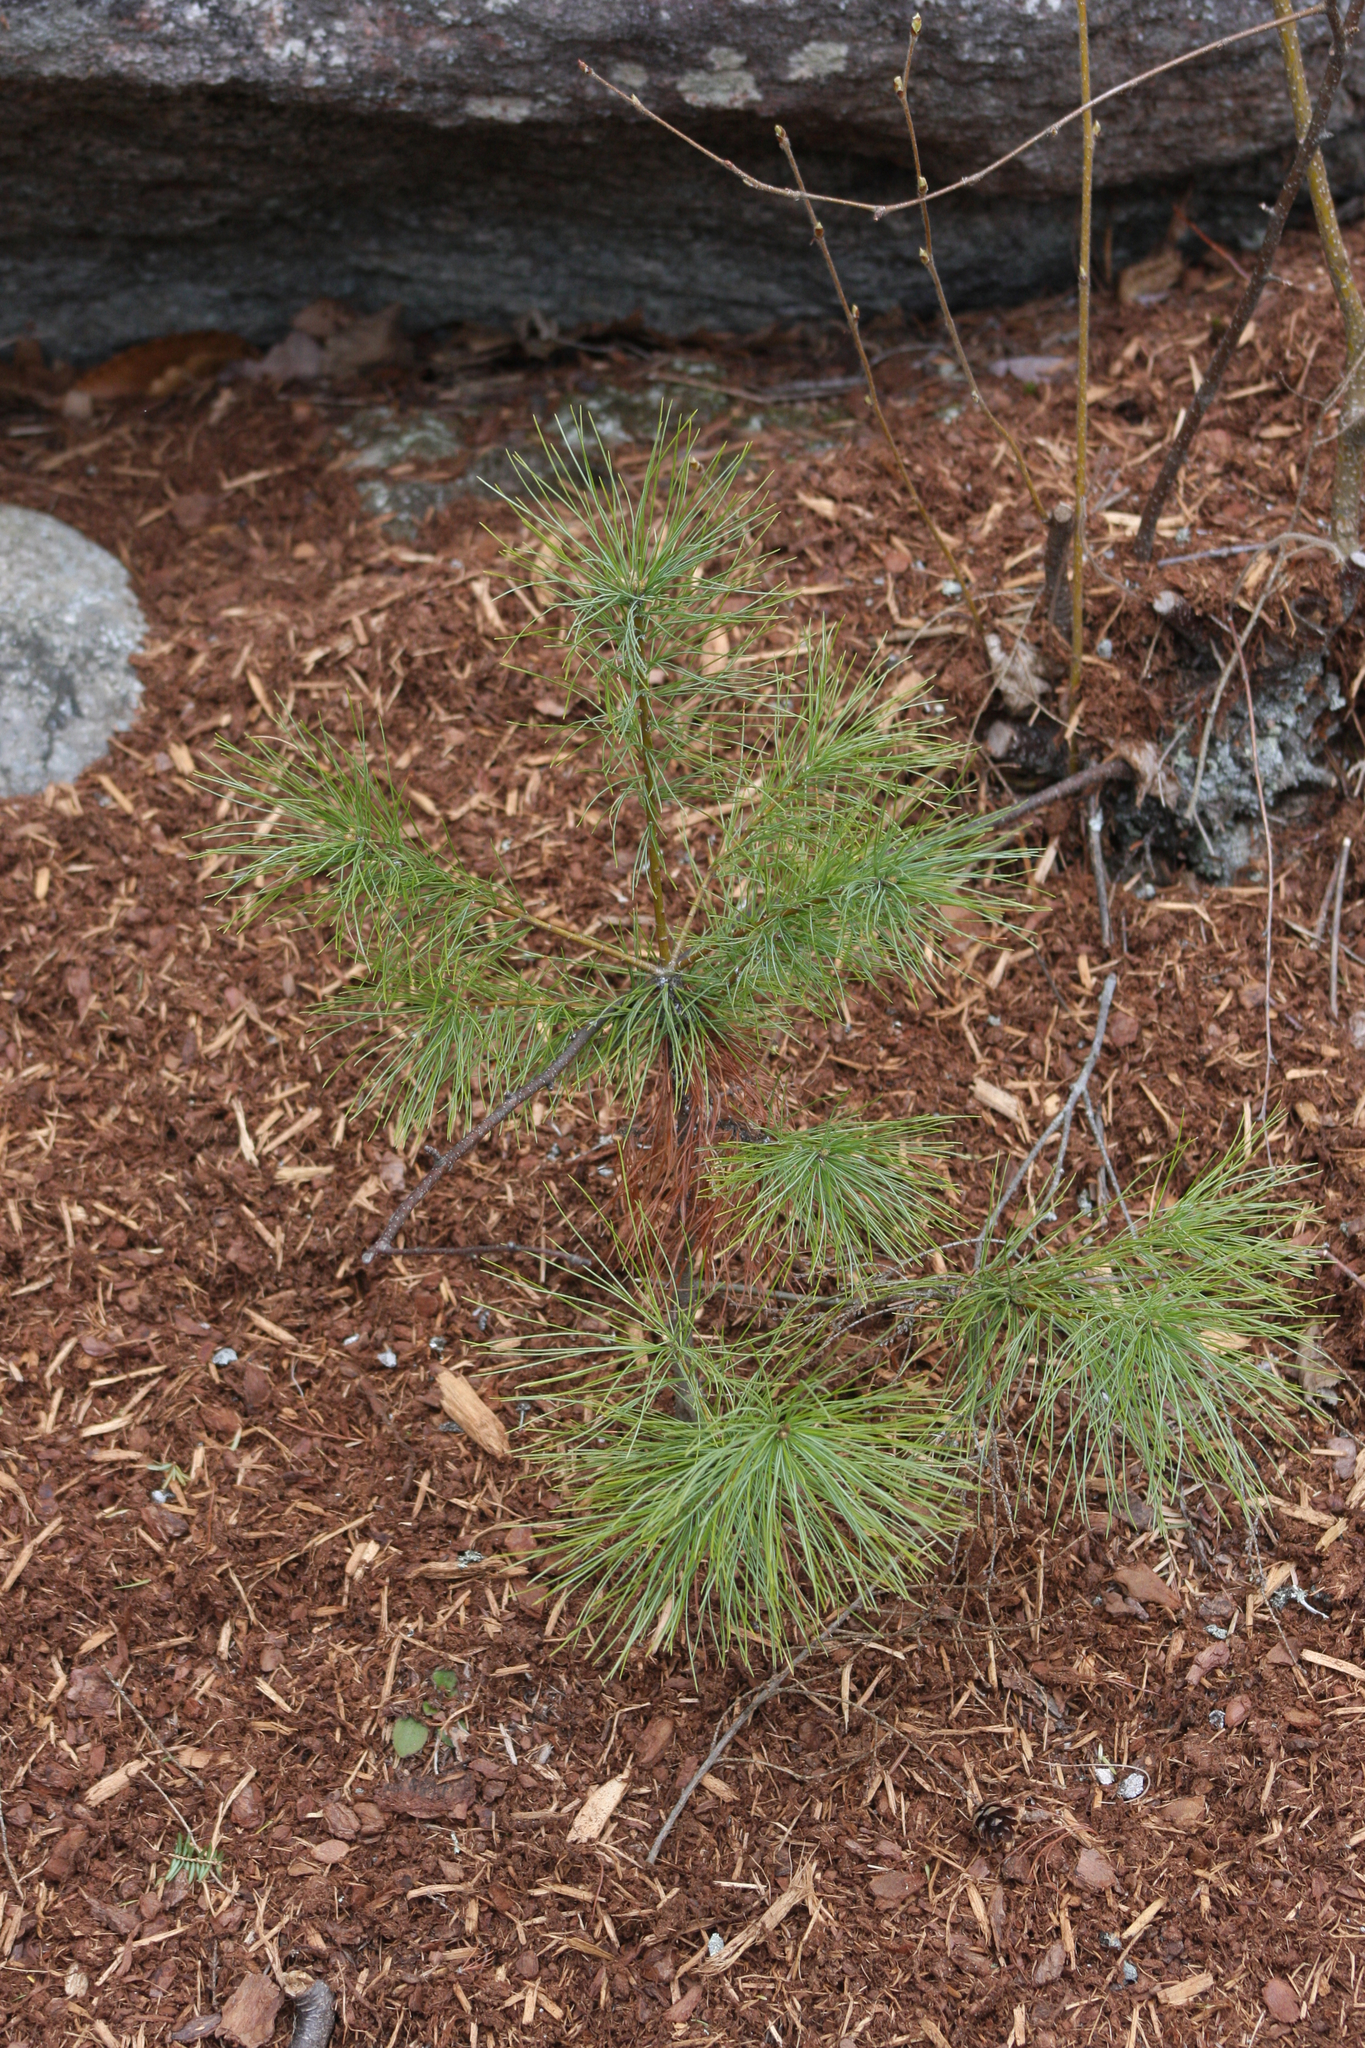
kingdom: Plantae
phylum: Tracheophyta
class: Pinopsida
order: Pinales
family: Pinaceae
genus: Pinus
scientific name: Pinus strobus
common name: Weymouth pine
